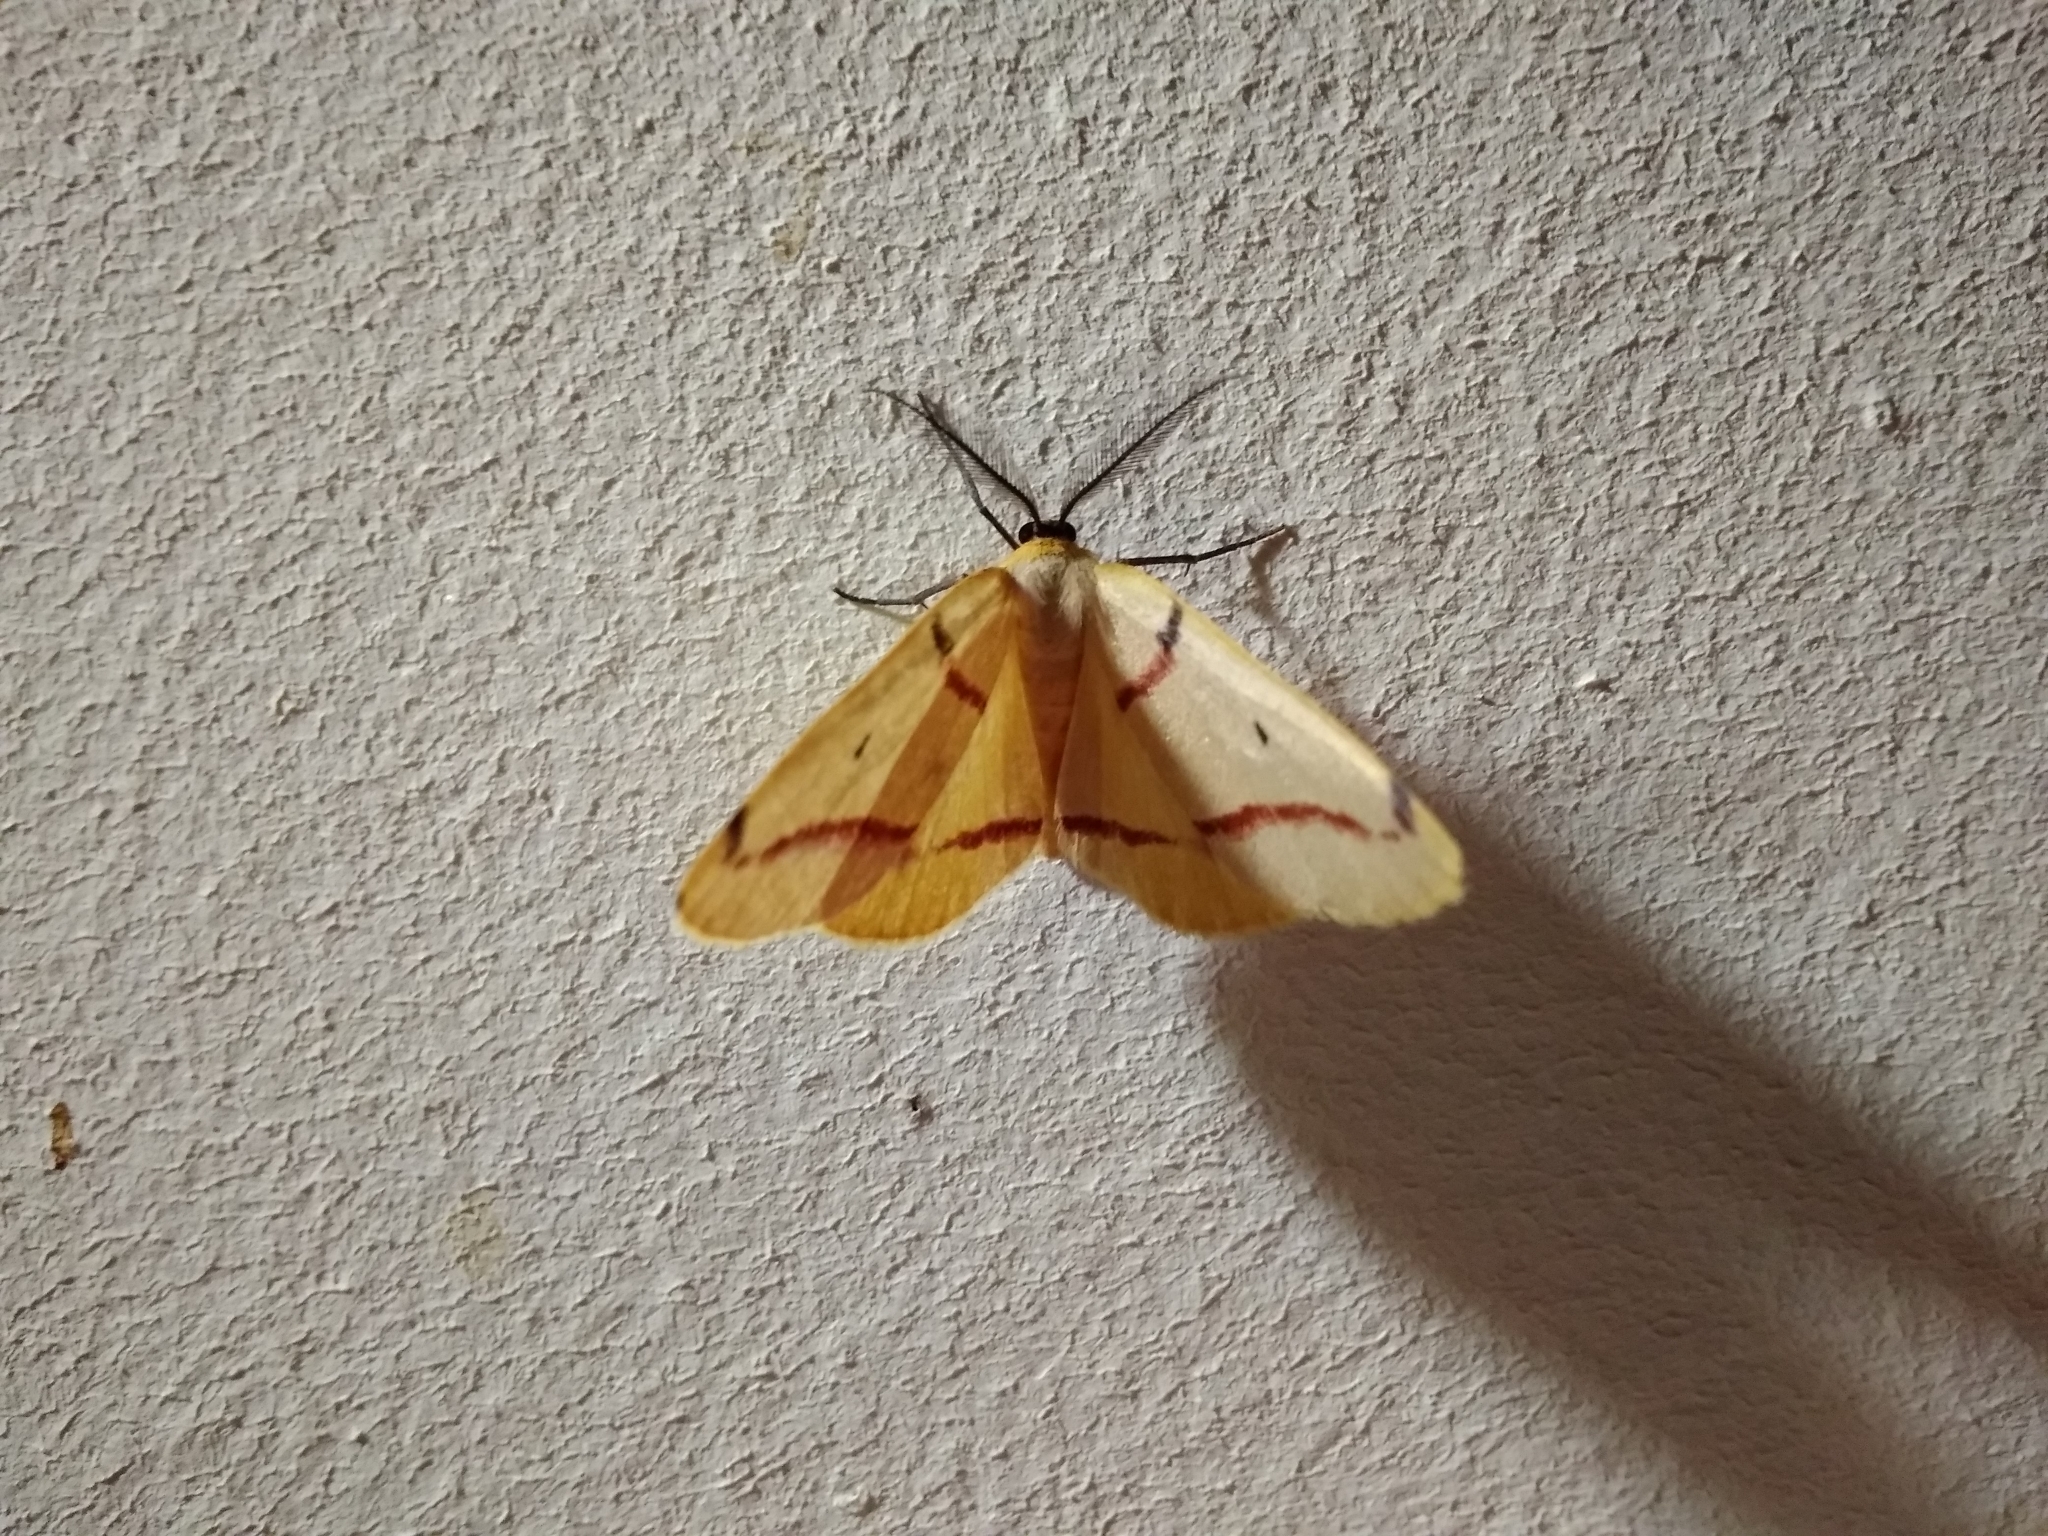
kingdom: Animalia
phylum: Arthropoda
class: Insecta
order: Lepidoptera
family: Geometridae
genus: Omizodes
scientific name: Omizodes rubrifasciata
